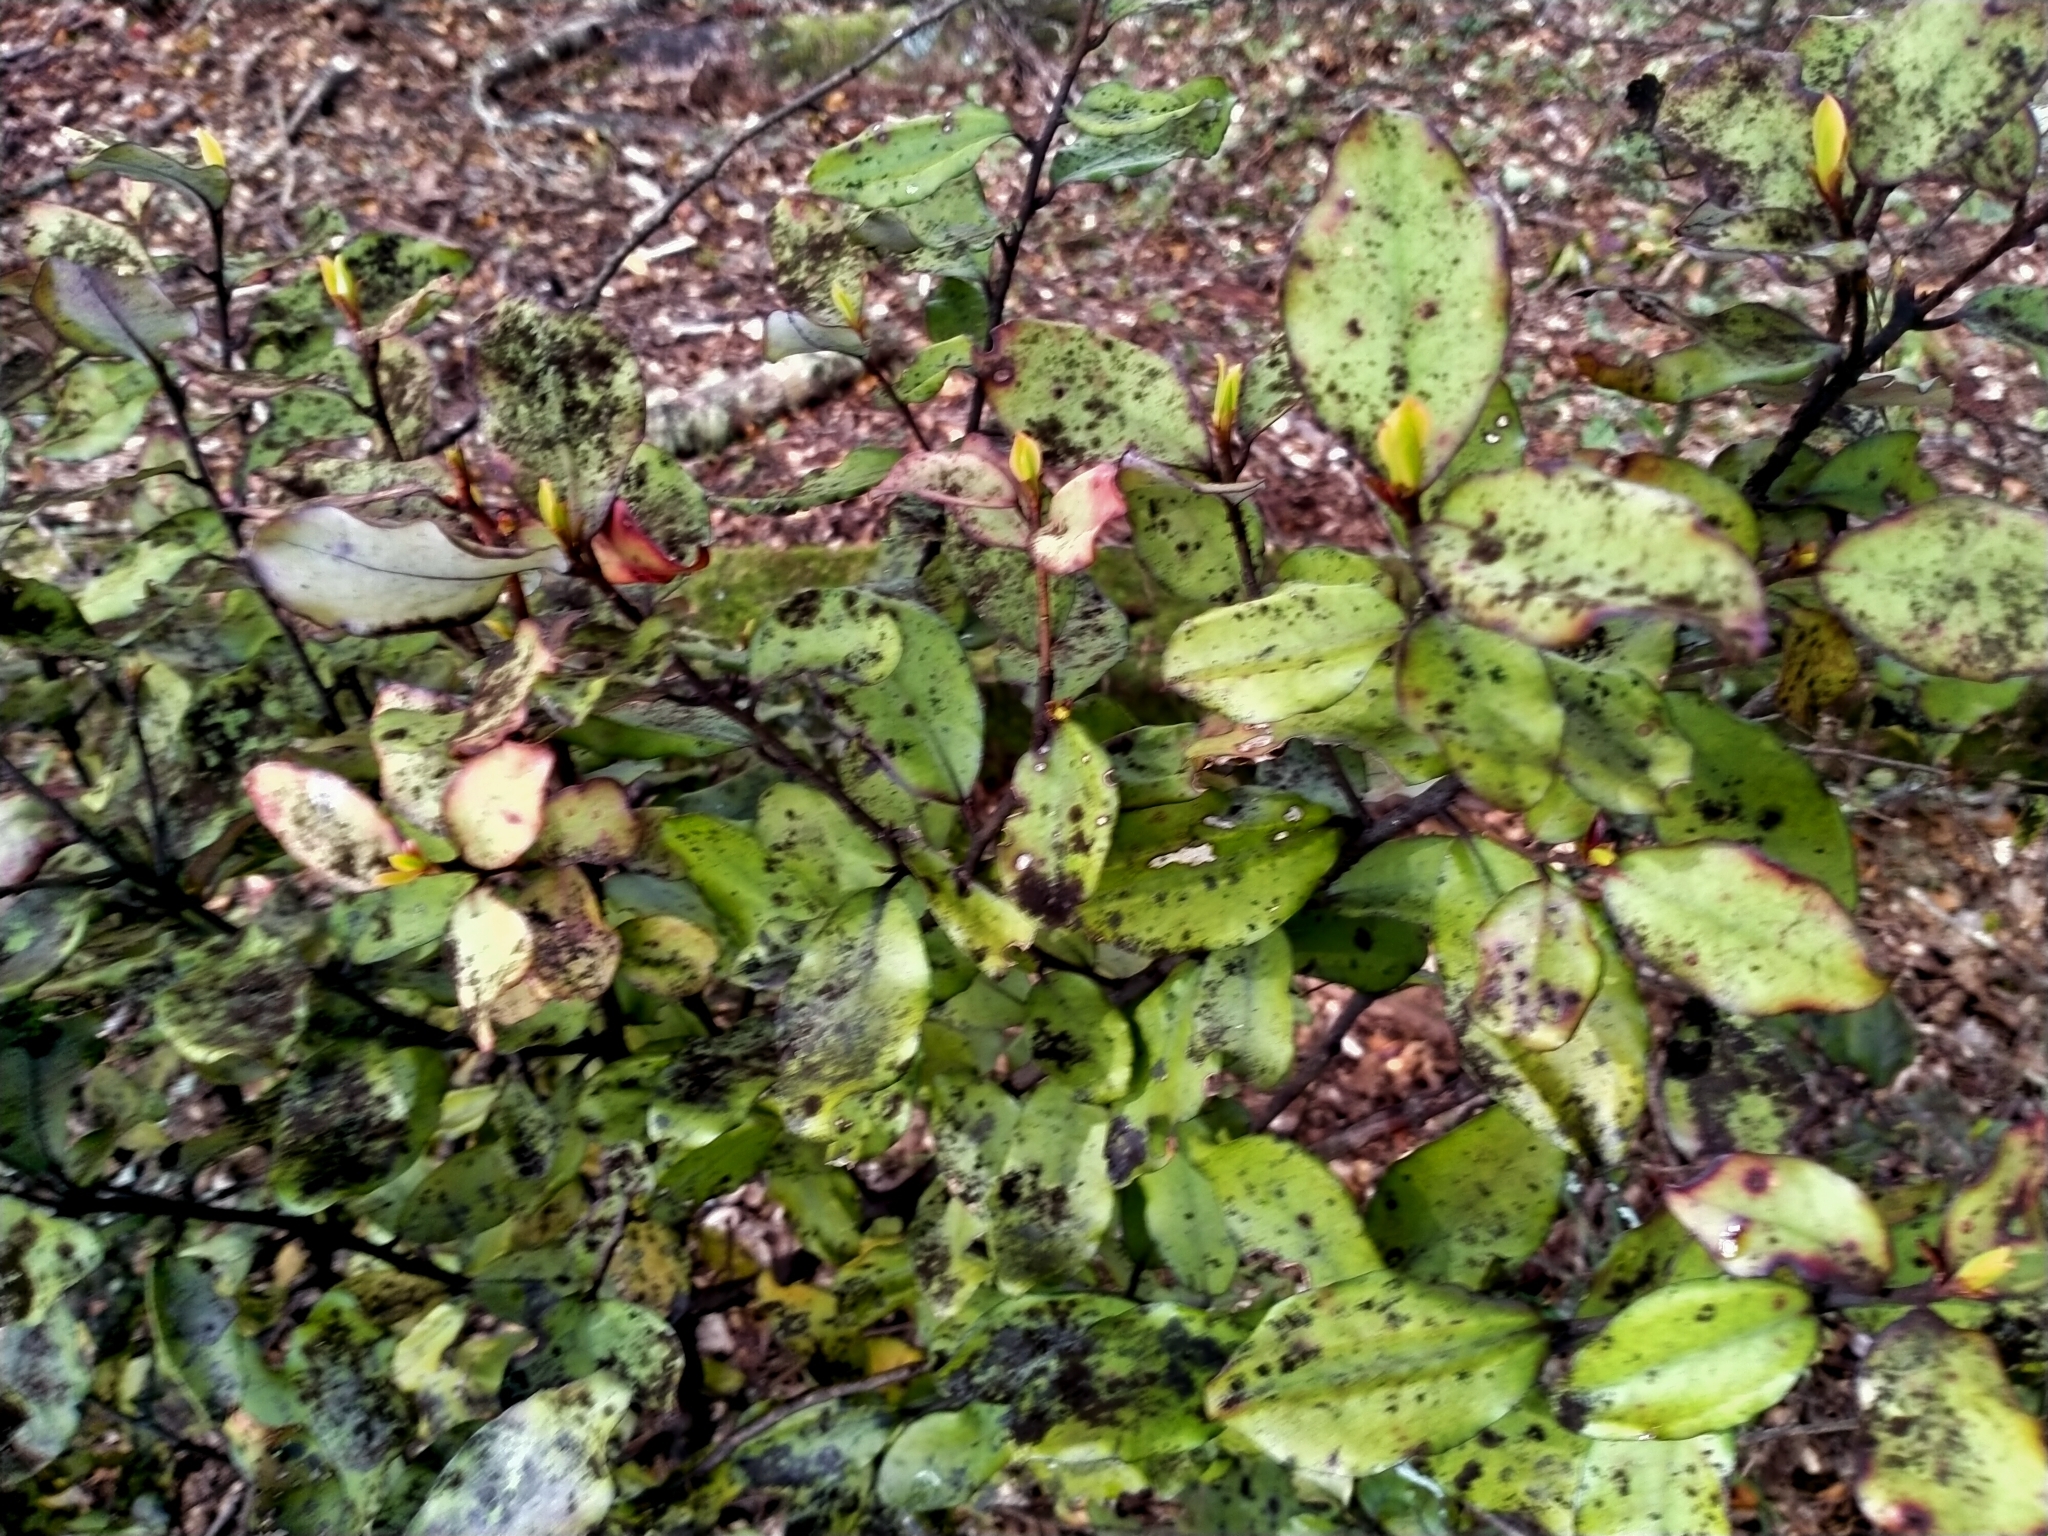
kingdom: Plantae
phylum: Tracheophyta
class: Magnoliopsida
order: Canellales
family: Winteraceae
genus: Pseudowintera
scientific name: Pseudowintera colorata
